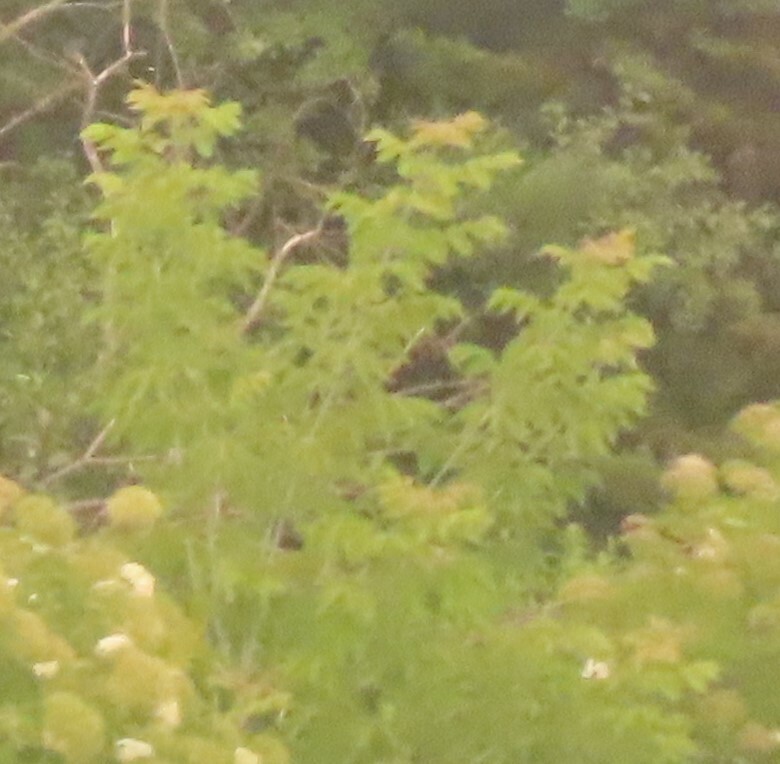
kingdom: Plantae
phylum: Tracheophyta
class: Magnoliopsida
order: Sapindales
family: Sapindaceae
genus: Acer
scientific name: Acer negundo
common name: Ashleaf maple
